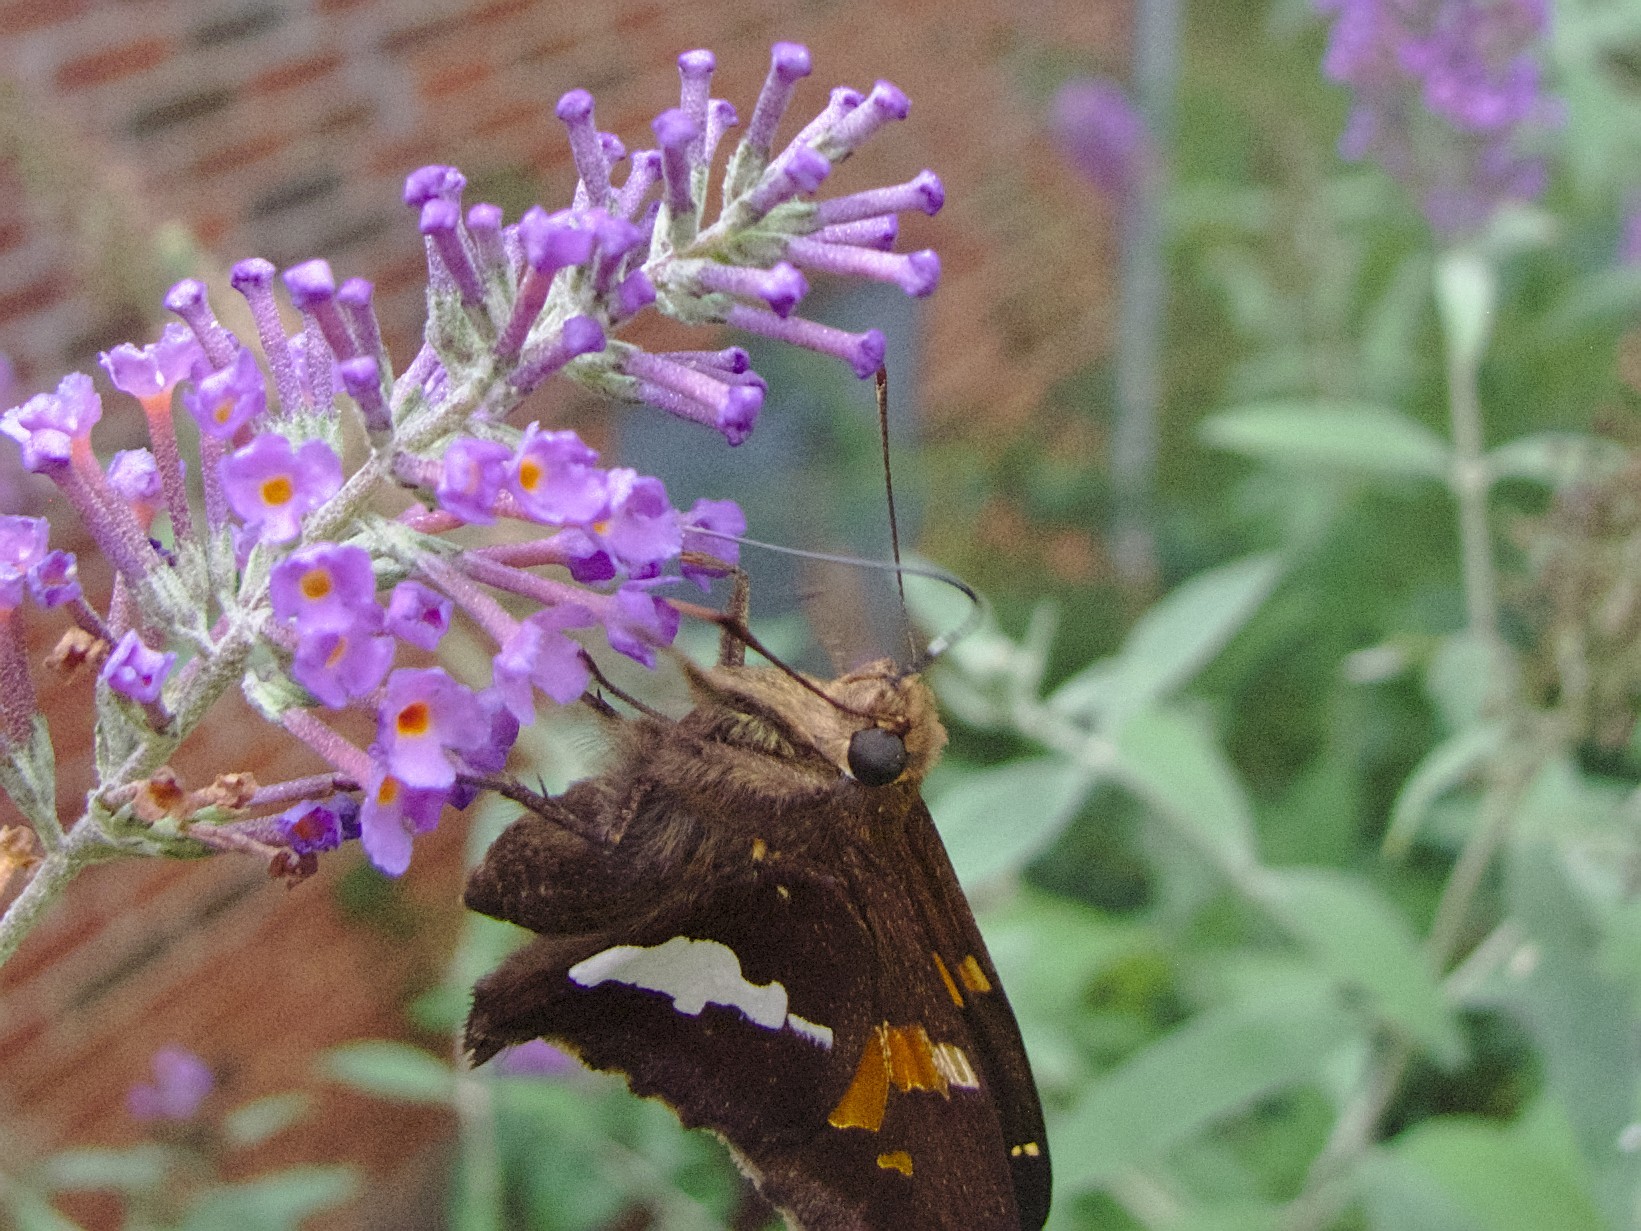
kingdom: Animalia
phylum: Arthropoda
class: Insecta
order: Lepidoptera
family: Hesperiidae
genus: Epargyreus
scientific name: Epargyreus clarus
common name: Silver-spotted skipper
